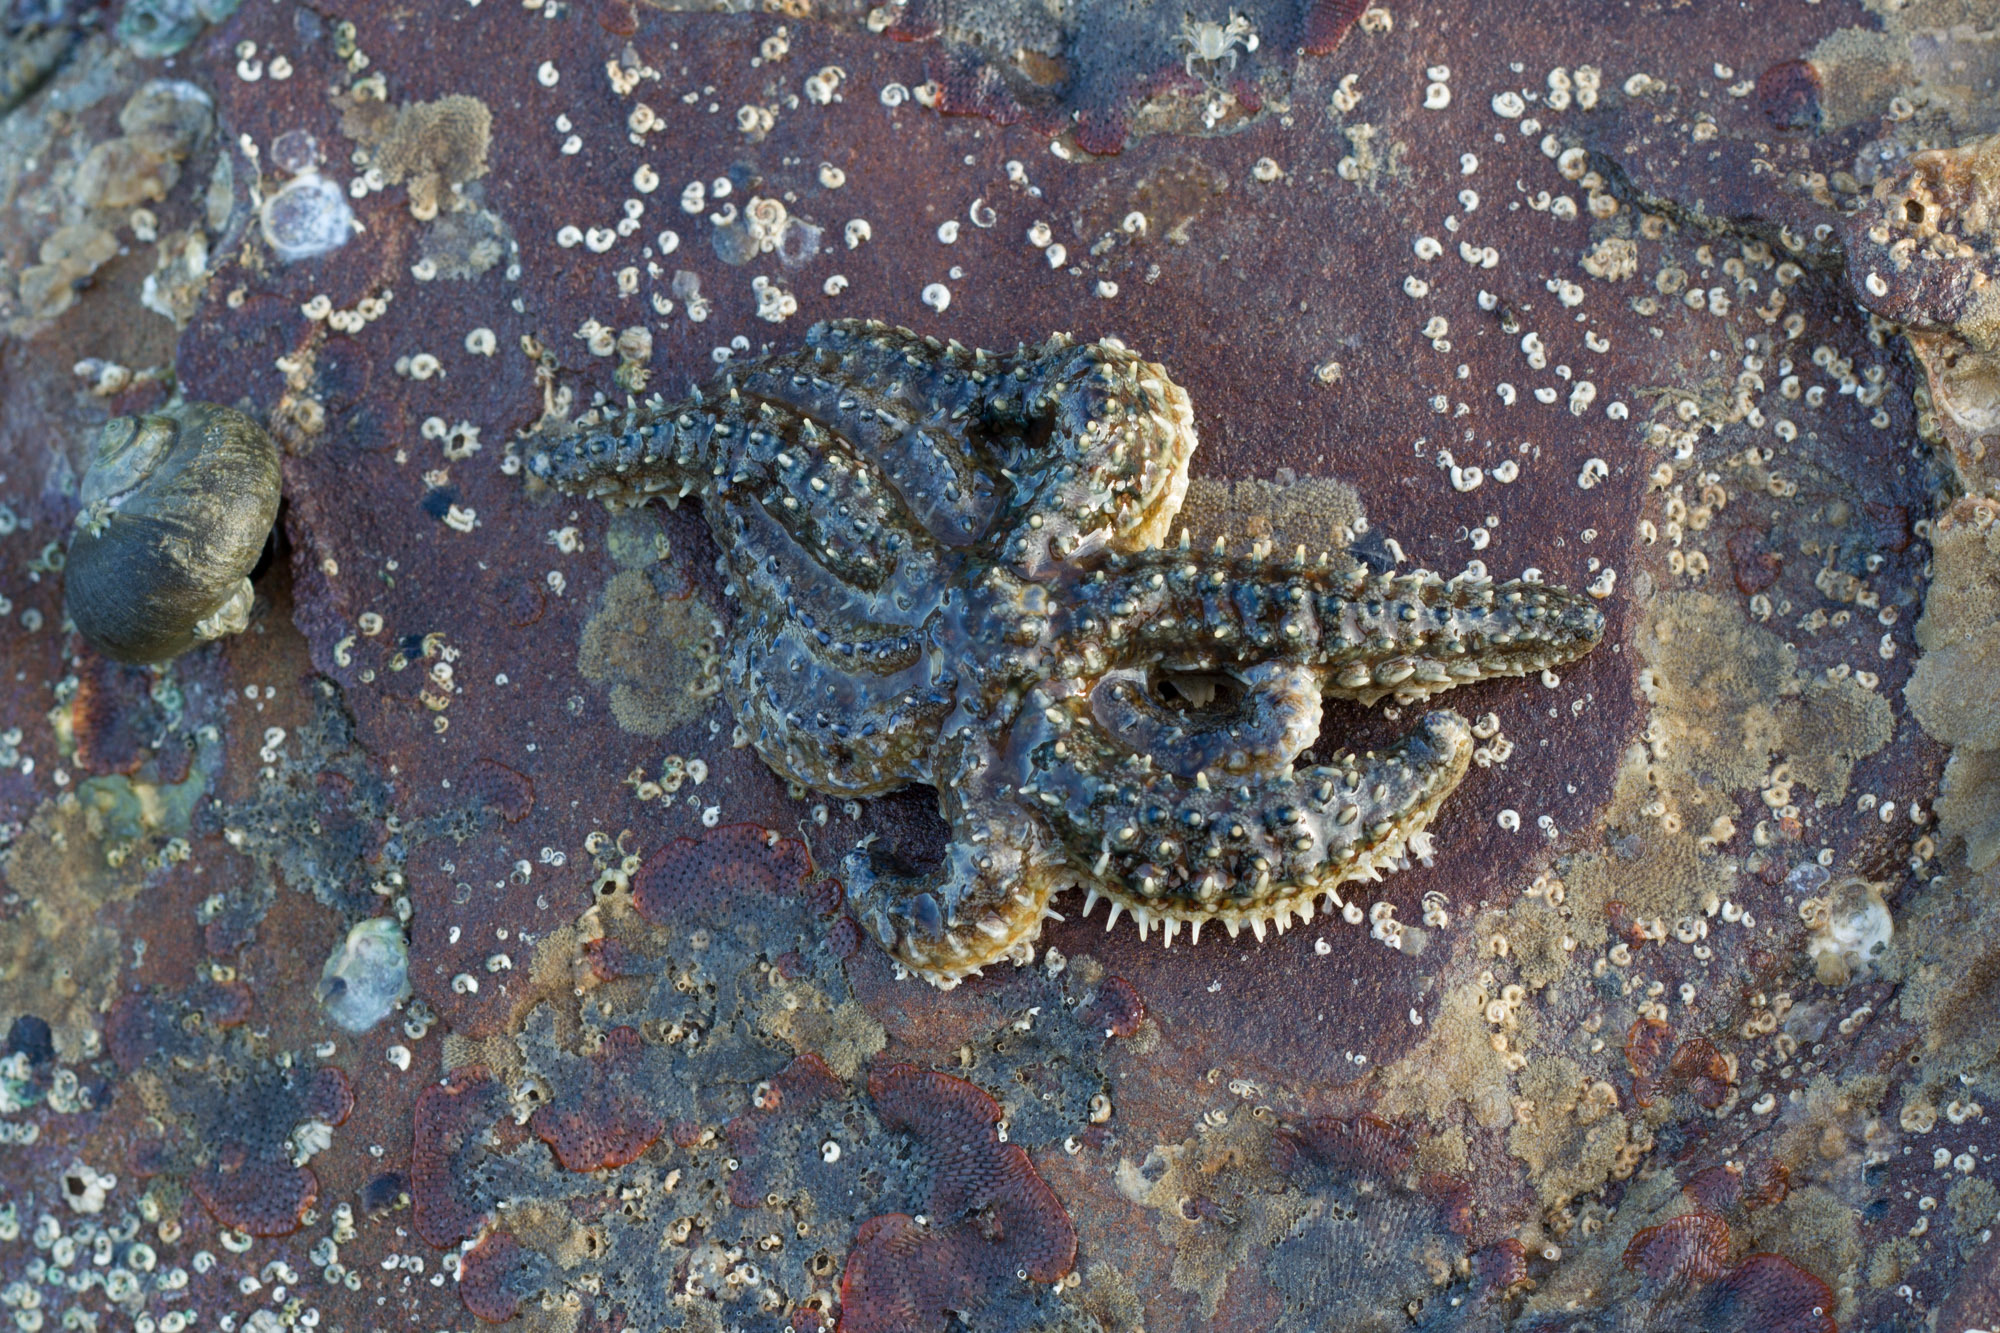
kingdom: Animalia
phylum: Echinodermata
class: Asteroidea
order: Forcipulatida
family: Asteriidae
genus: Coscinasterias
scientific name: Coscinasterias muricata
